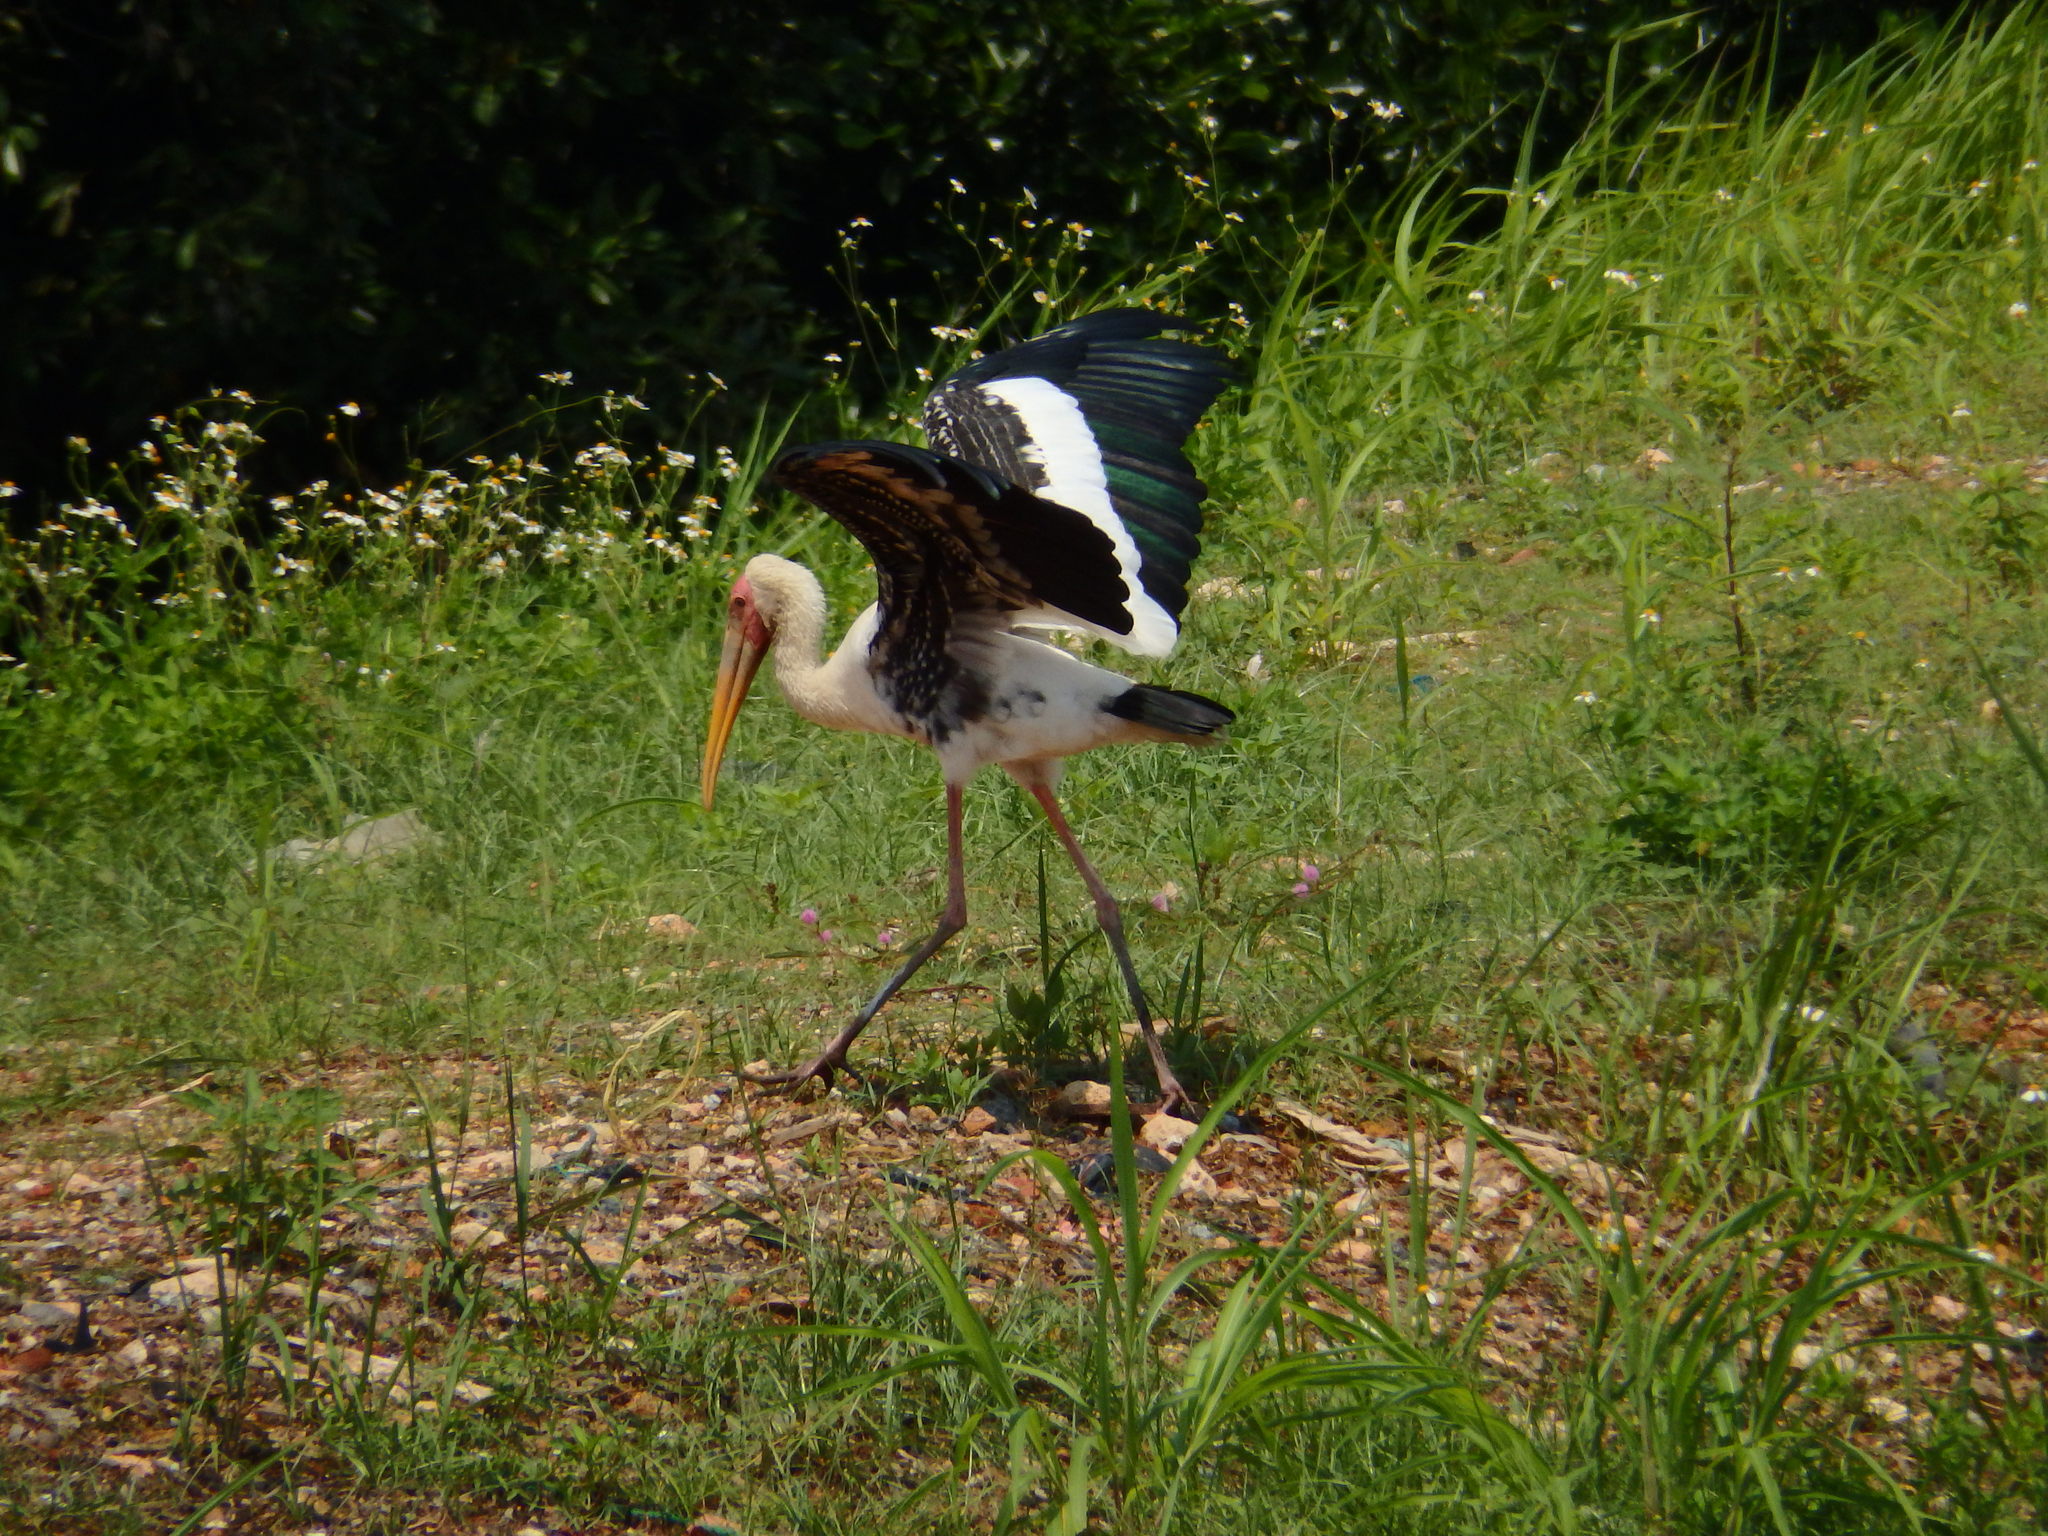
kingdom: Animalia
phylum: Chordata
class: Aves
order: Ciconiiformes
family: Ciconiidae
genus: Mycteria
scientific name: Mycteria
